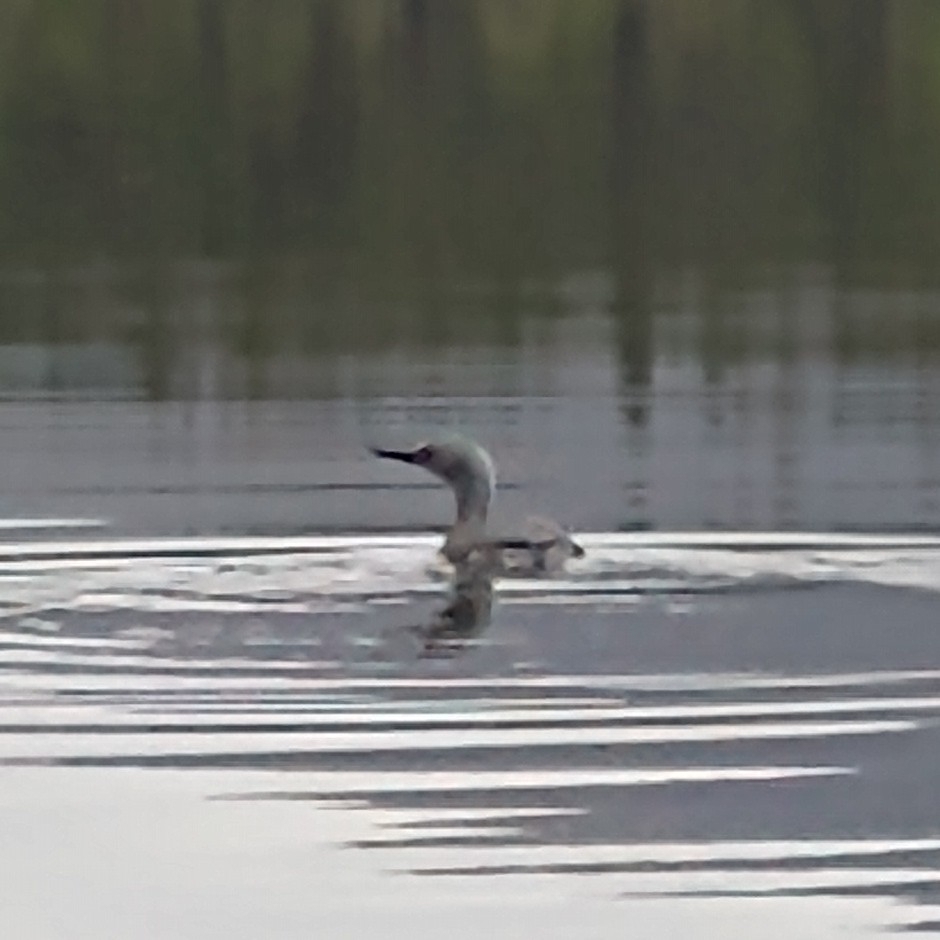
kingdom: Animalia
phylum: Chordata
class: Aves
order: Gaviiformes
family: Gaviidae
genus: Gavia
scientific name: Gavia stellata
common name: Red-throated loon
